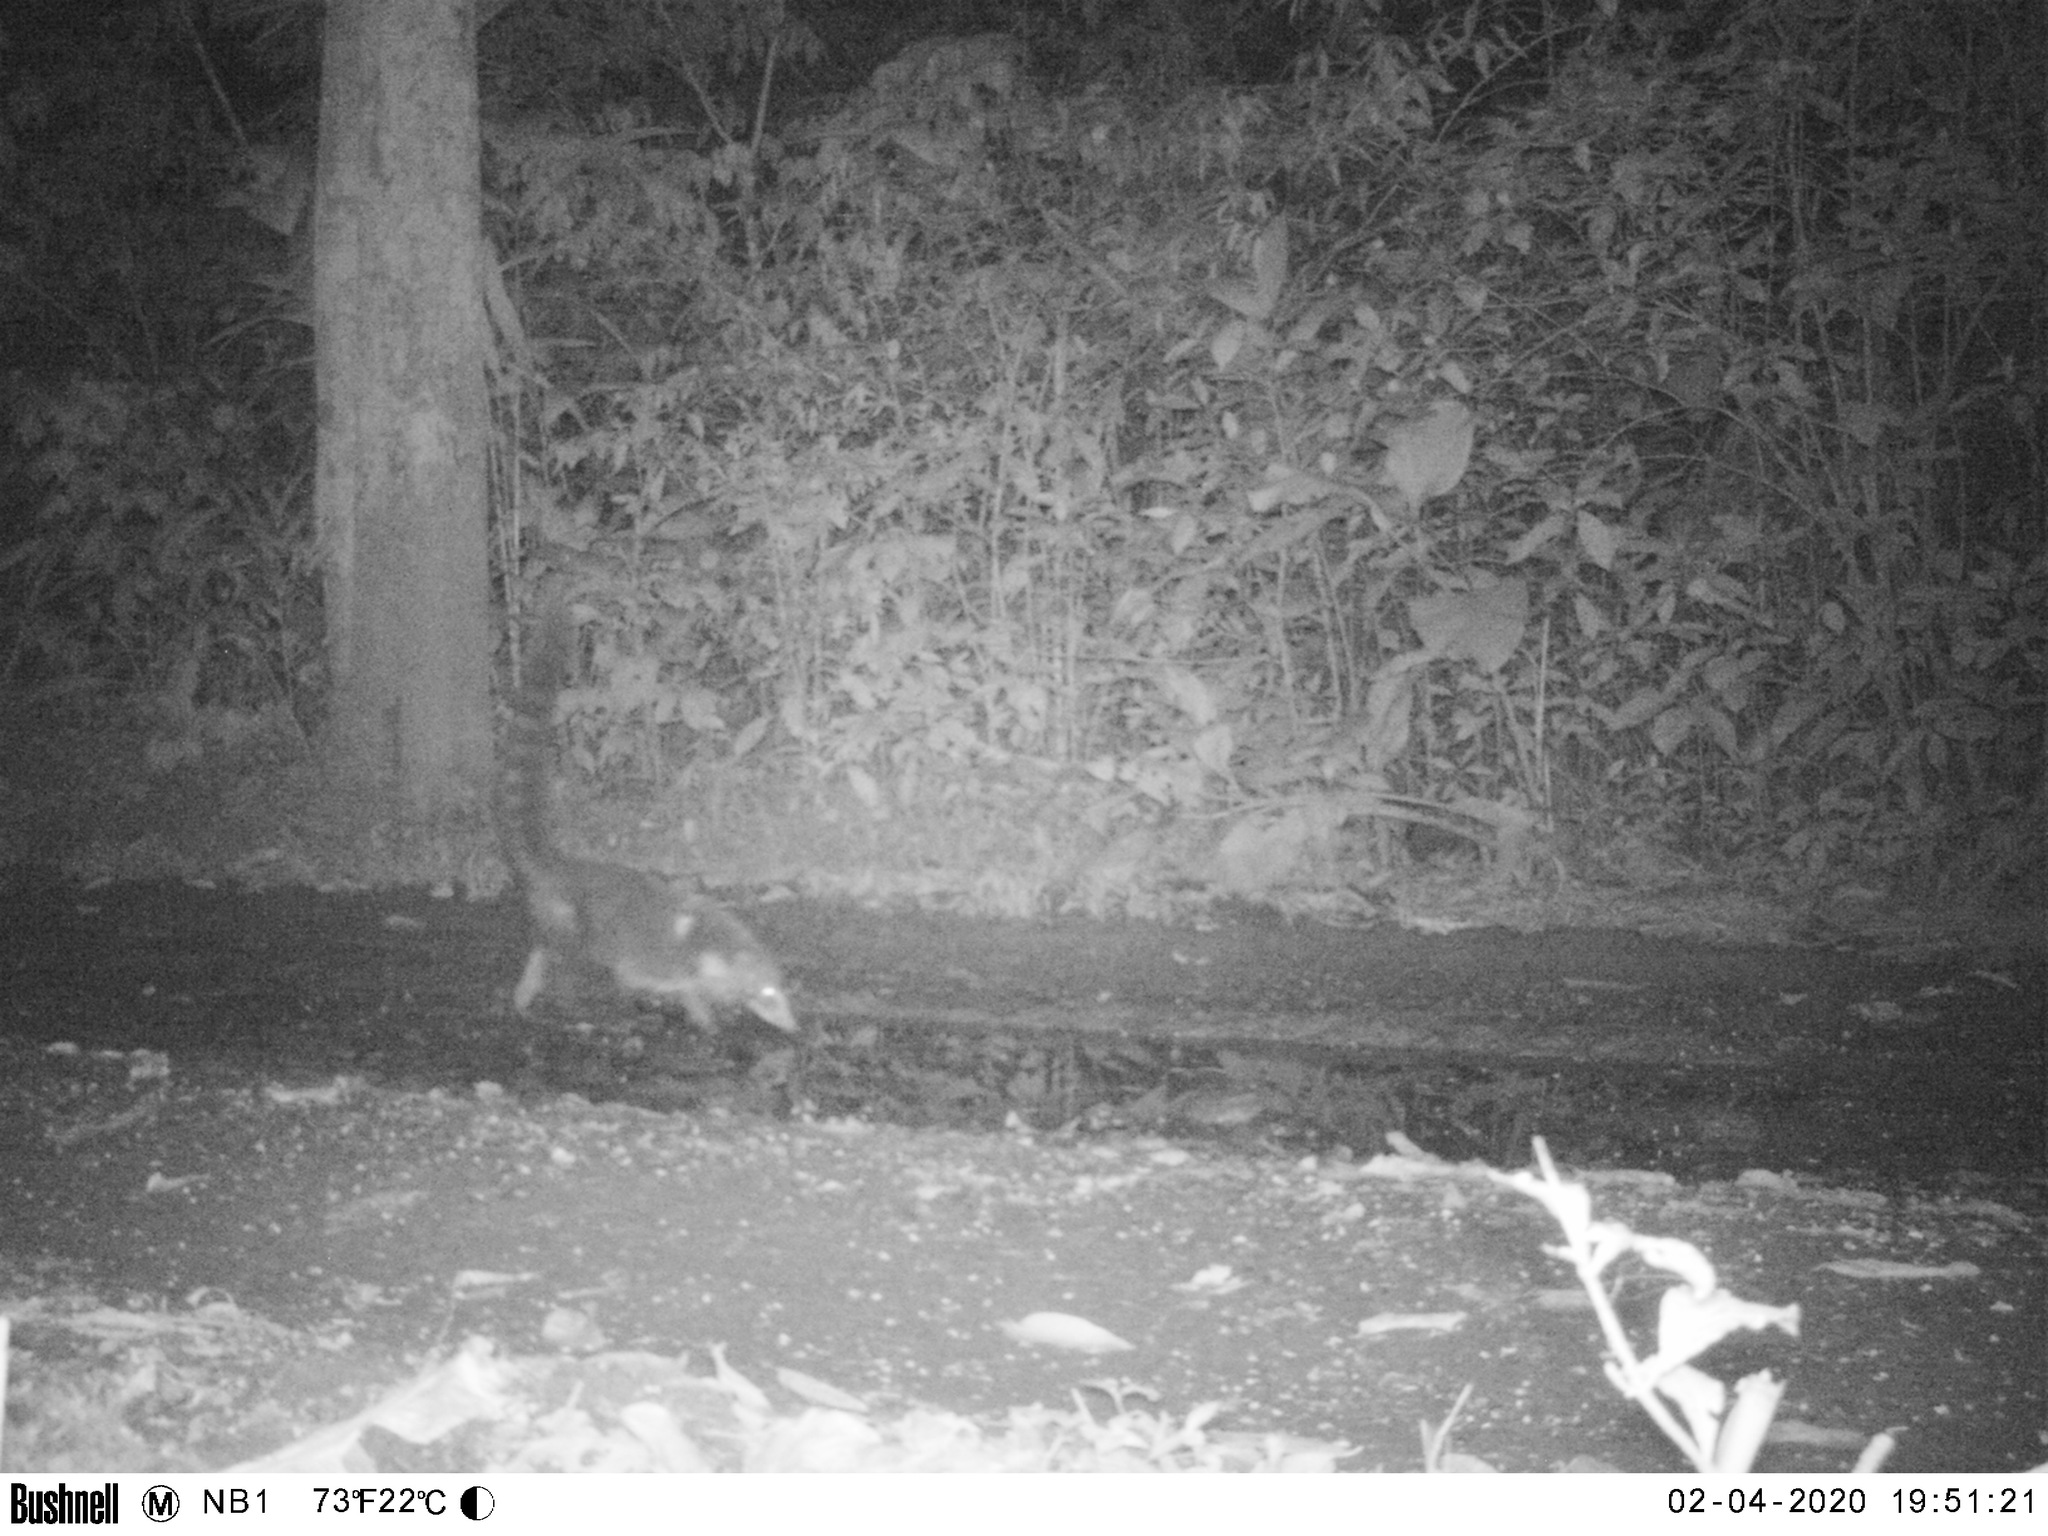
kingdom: Animalia
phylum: Chordata
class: Mammalia
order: Carnivora
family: Procyonidae
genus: Nasua
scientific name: Nasua narica
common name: White-nosed coati
